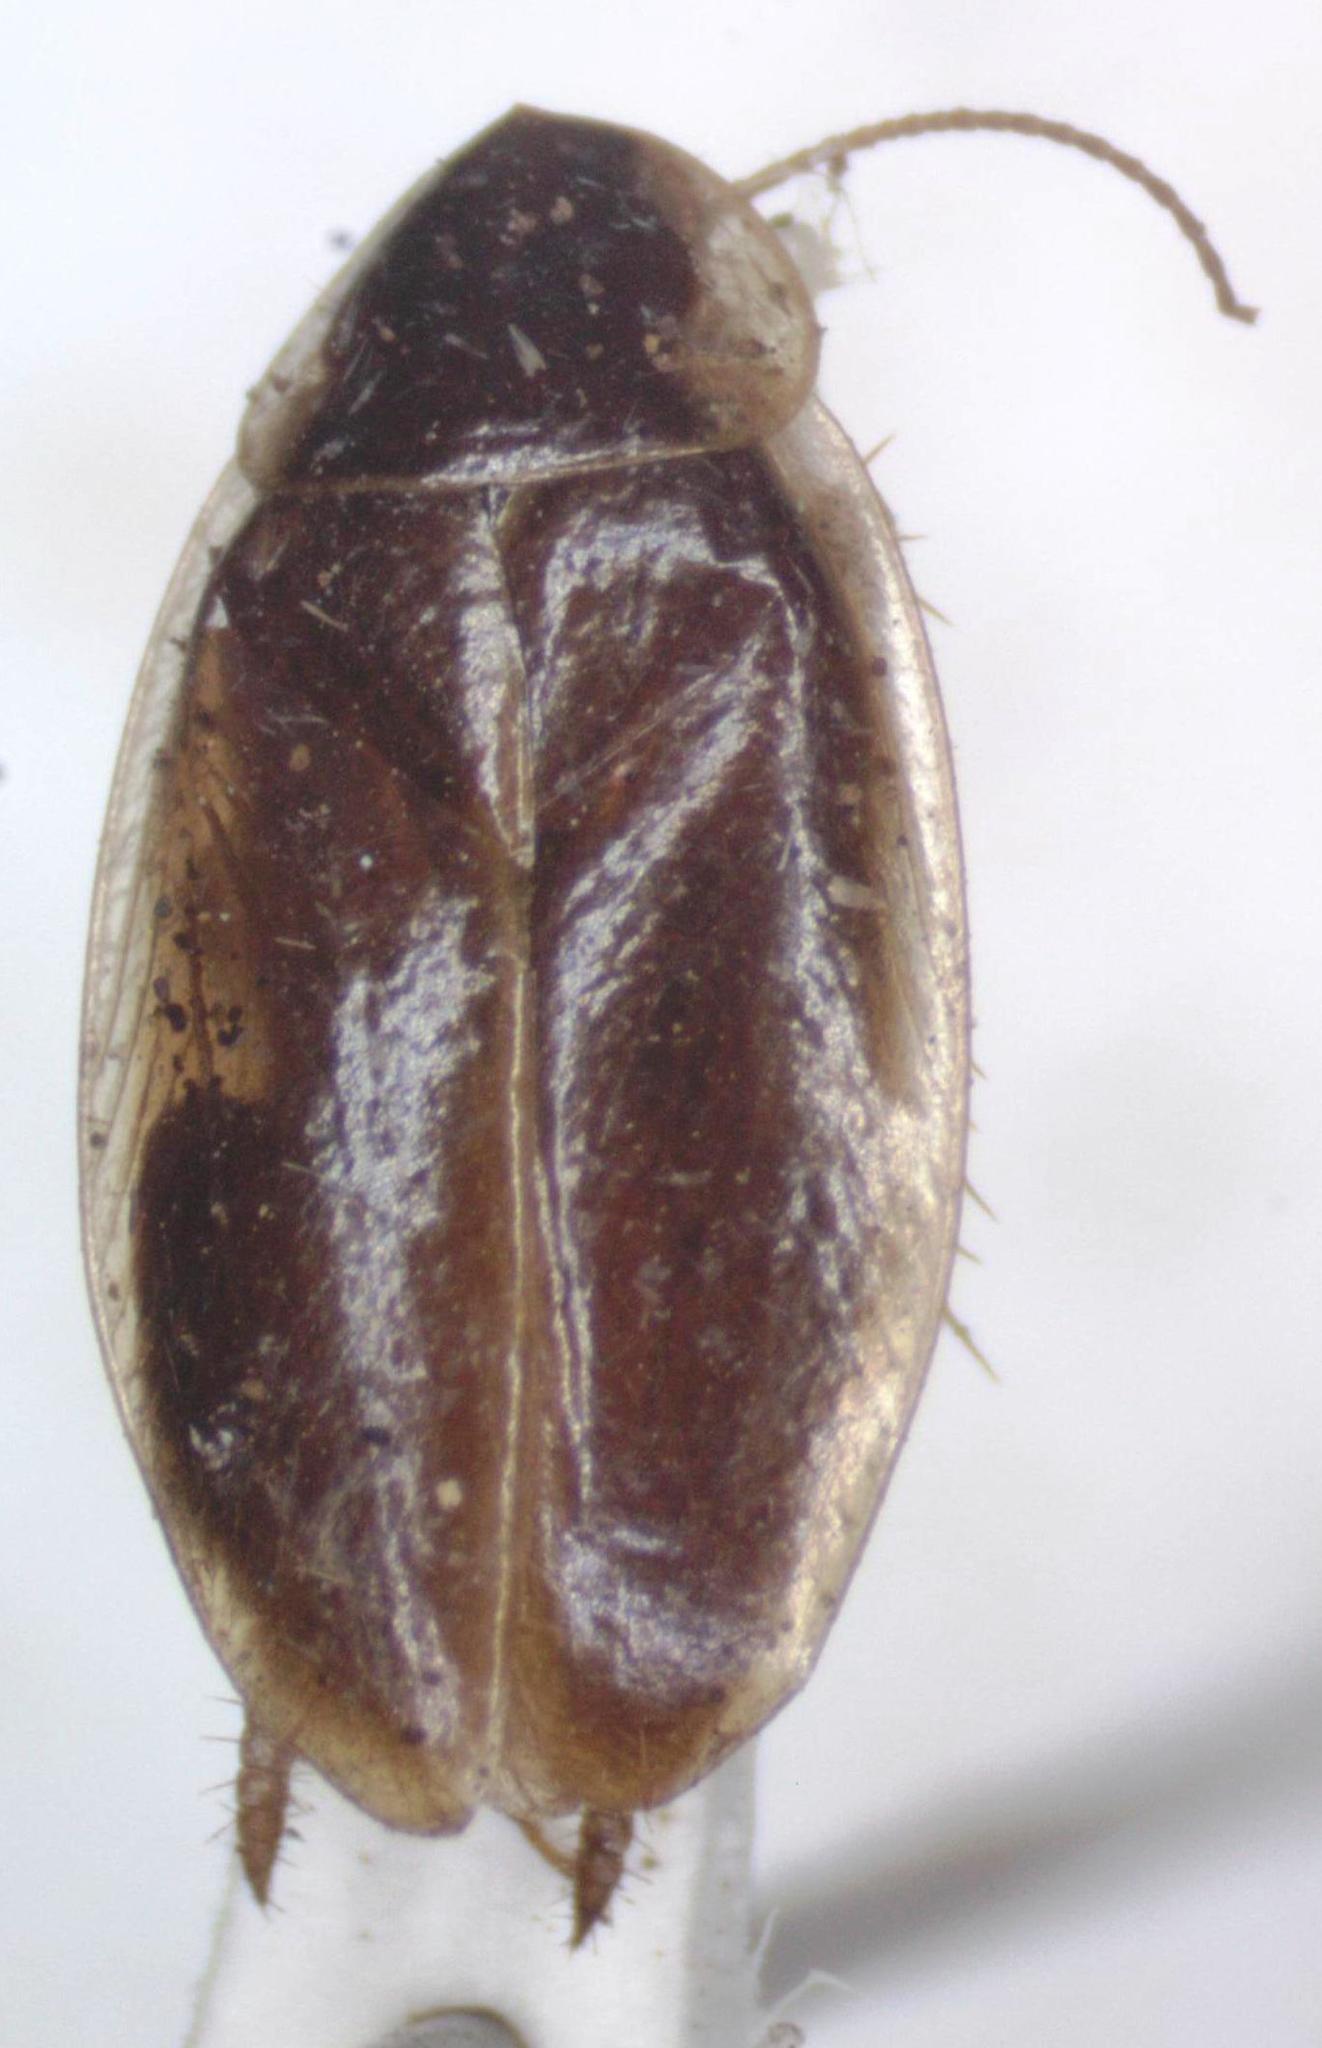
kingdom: Animalia
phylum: Arthropoda
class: Insecta
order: Blattodea
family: Anaplectidae
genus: Anaplecta
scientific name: Anaplecta fallax
